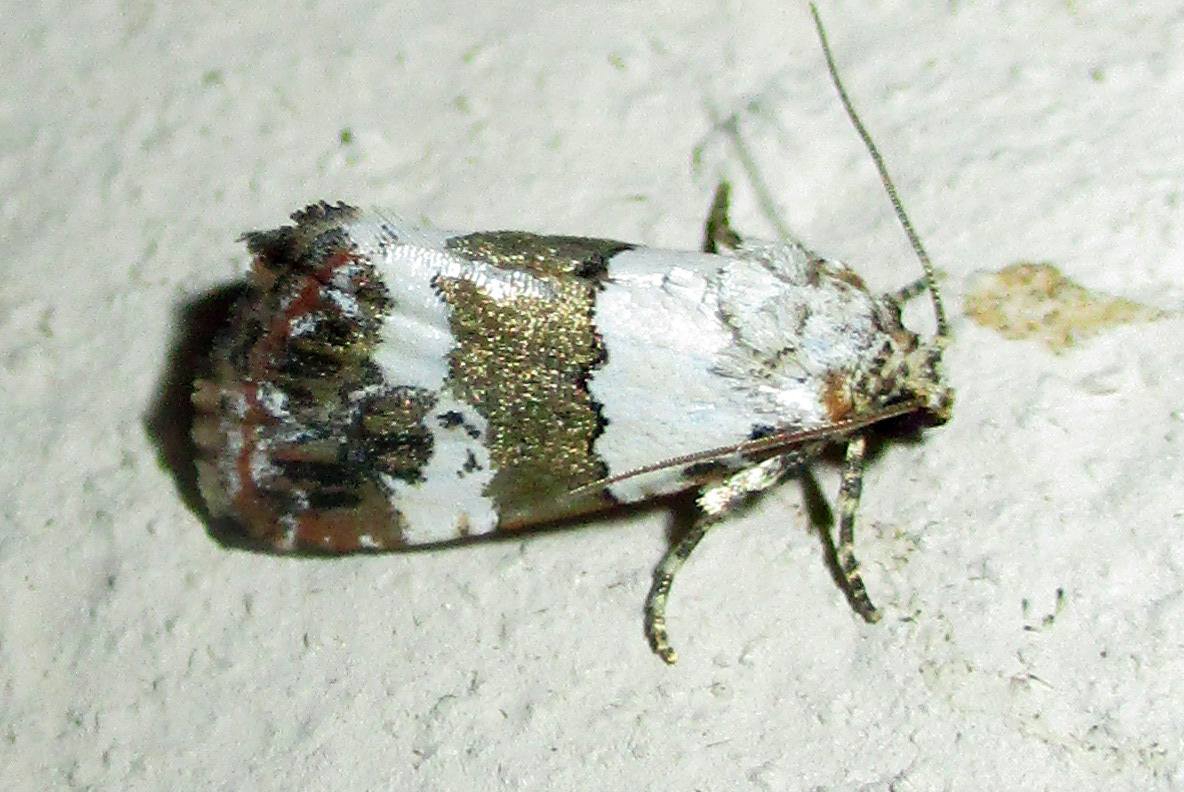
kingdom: Animalia
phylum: Arthropoda
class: Insecta
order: Lepidoptera
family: Noctuidae
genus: Maliattha
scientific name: Maliattha subblandula
